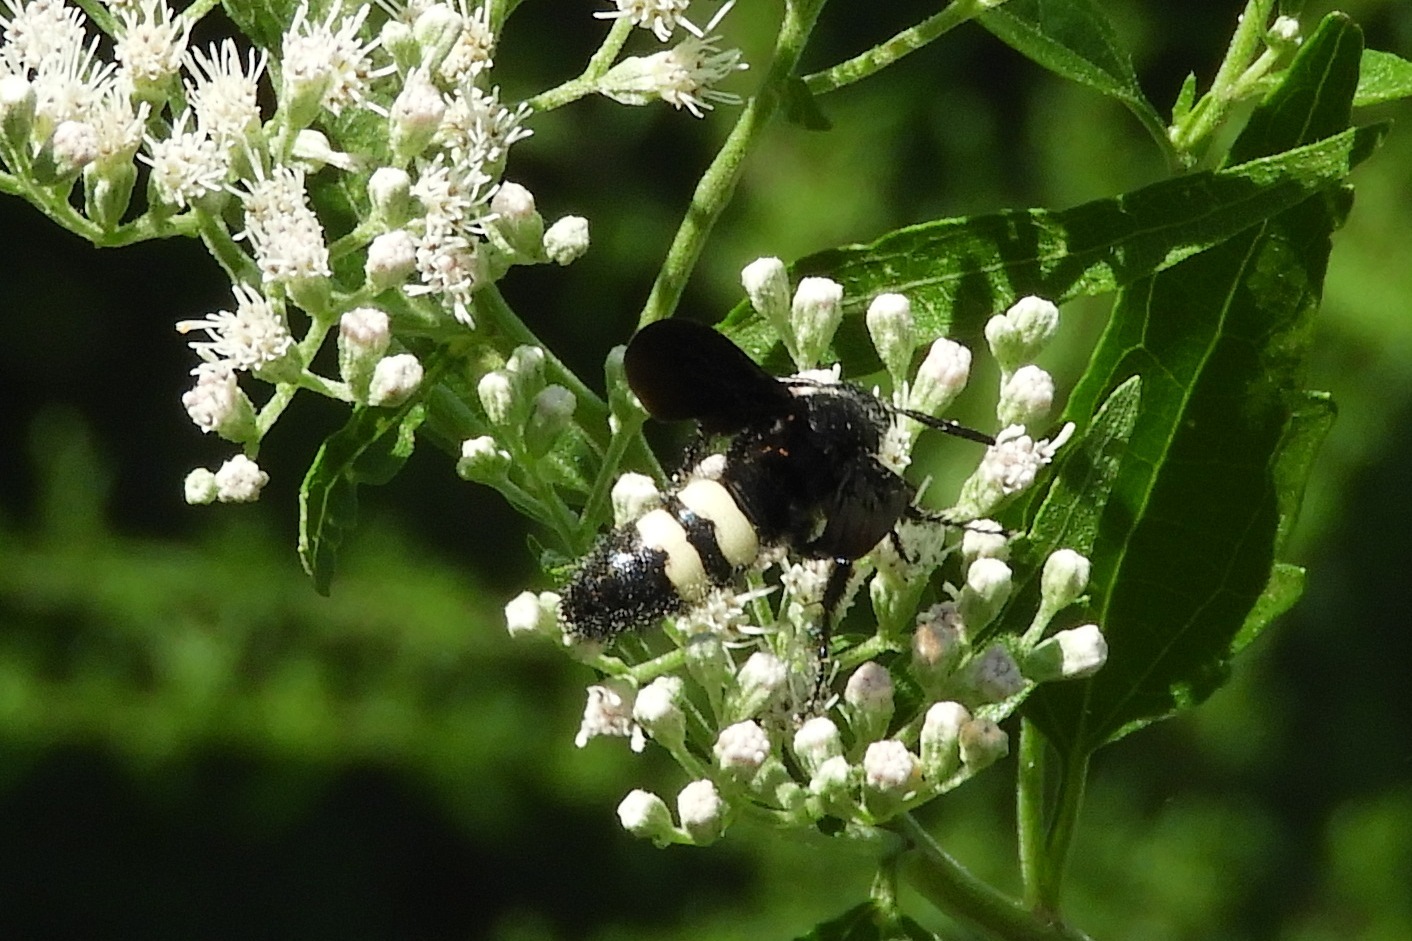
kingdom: Animalia
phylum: Arthropoda
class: Insecta
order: Hymenoptera
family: Scoliidae
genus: Scolia
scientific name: Scolia bicincta
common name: Double-banded scoliid wasp
